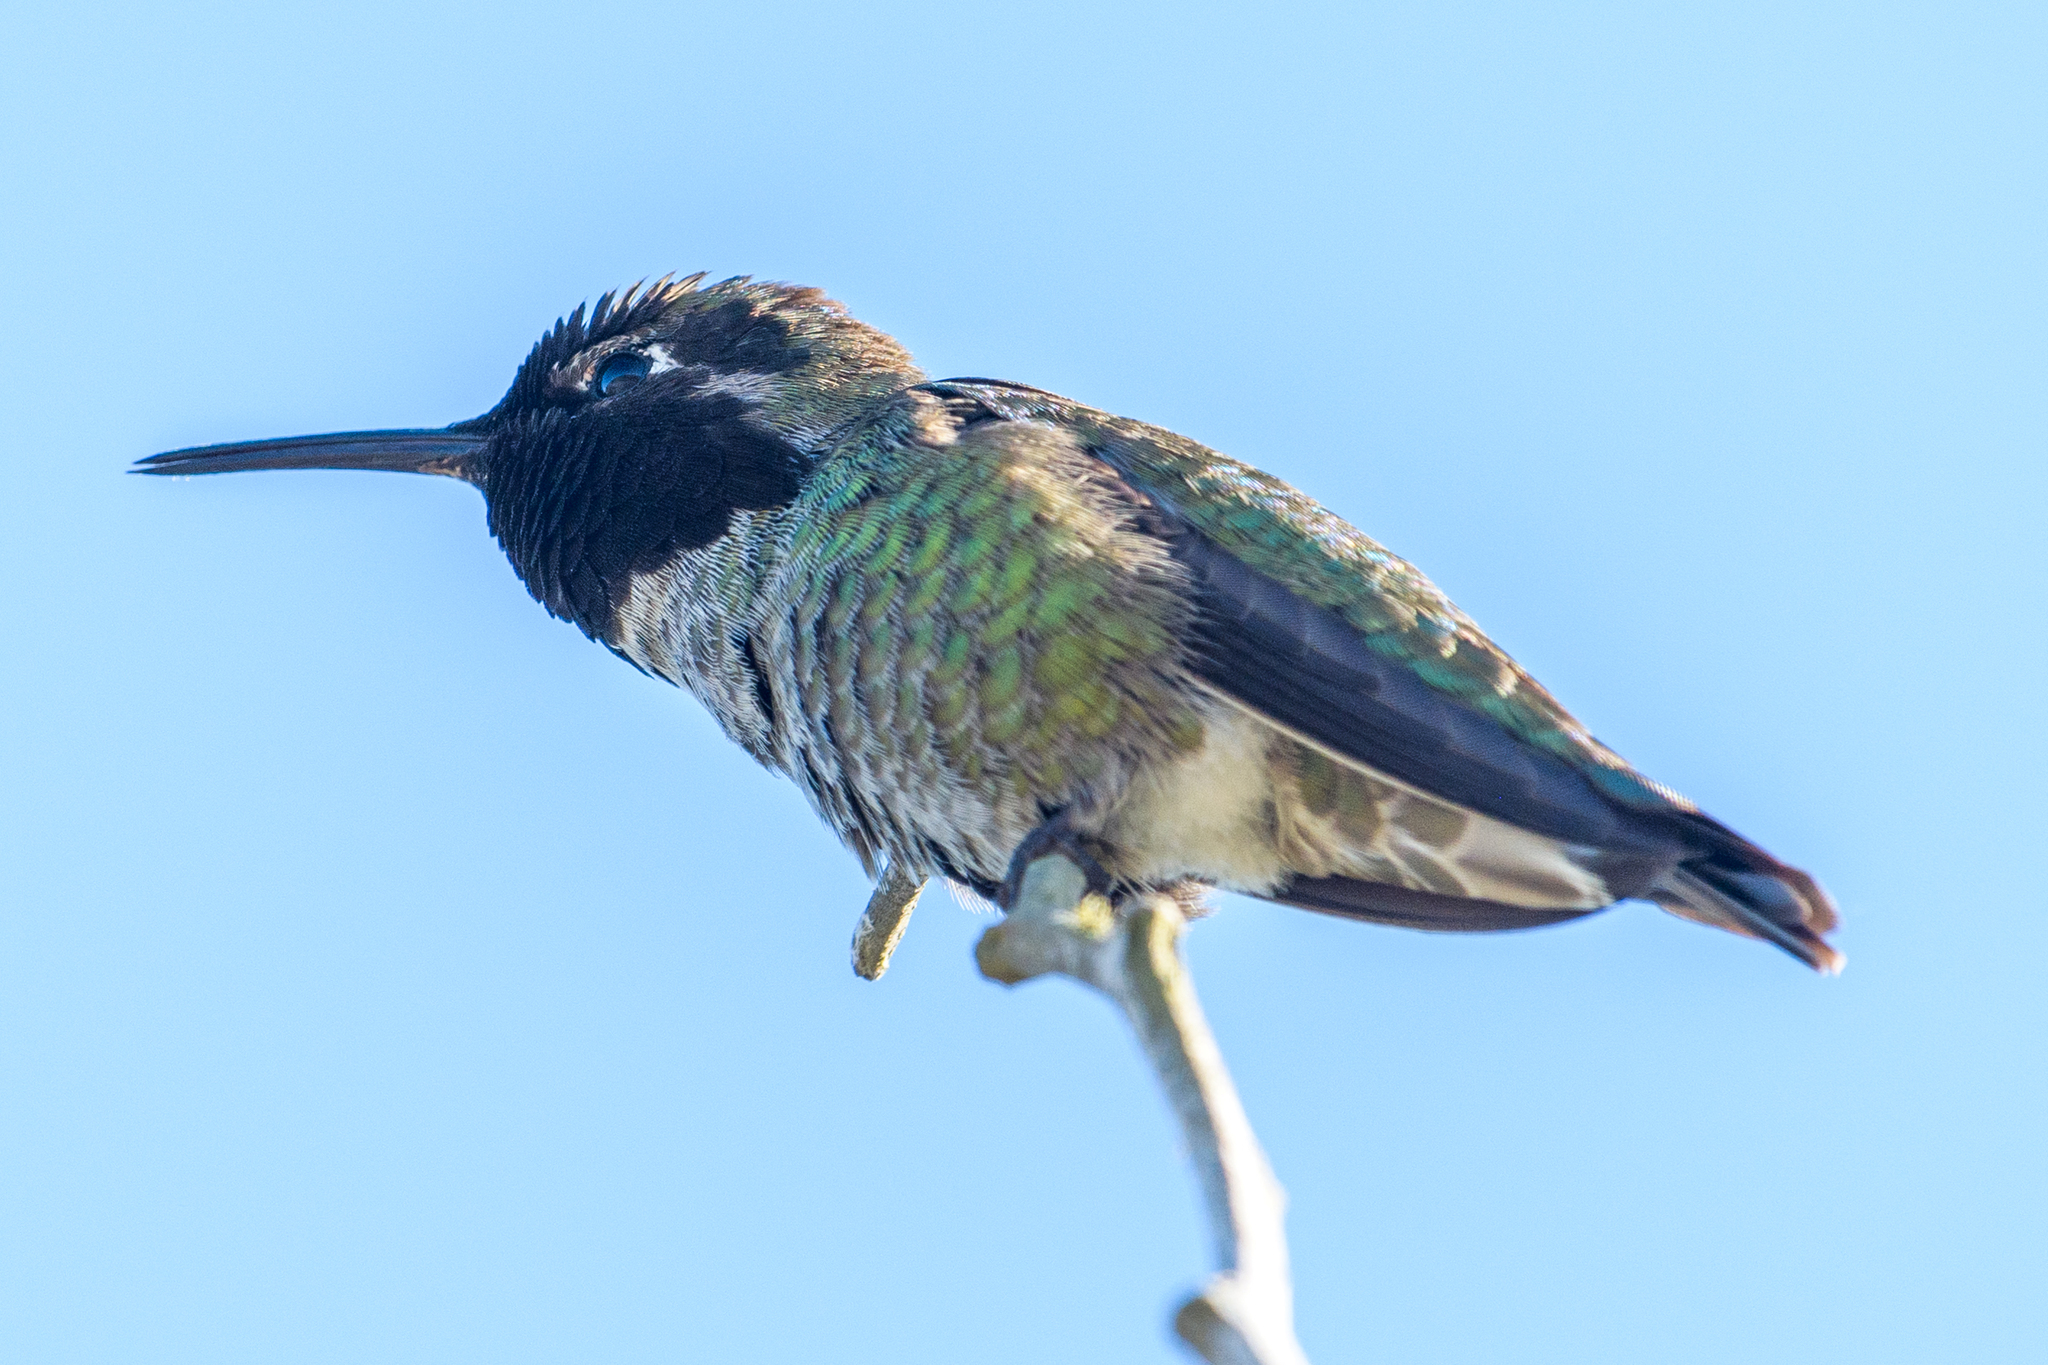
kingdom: Animalia
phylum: Chordata
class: Aves
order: Apodiformes
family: Trochilidae
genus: Calypte
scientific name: Calypte anna
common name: Anna's hummingbird
